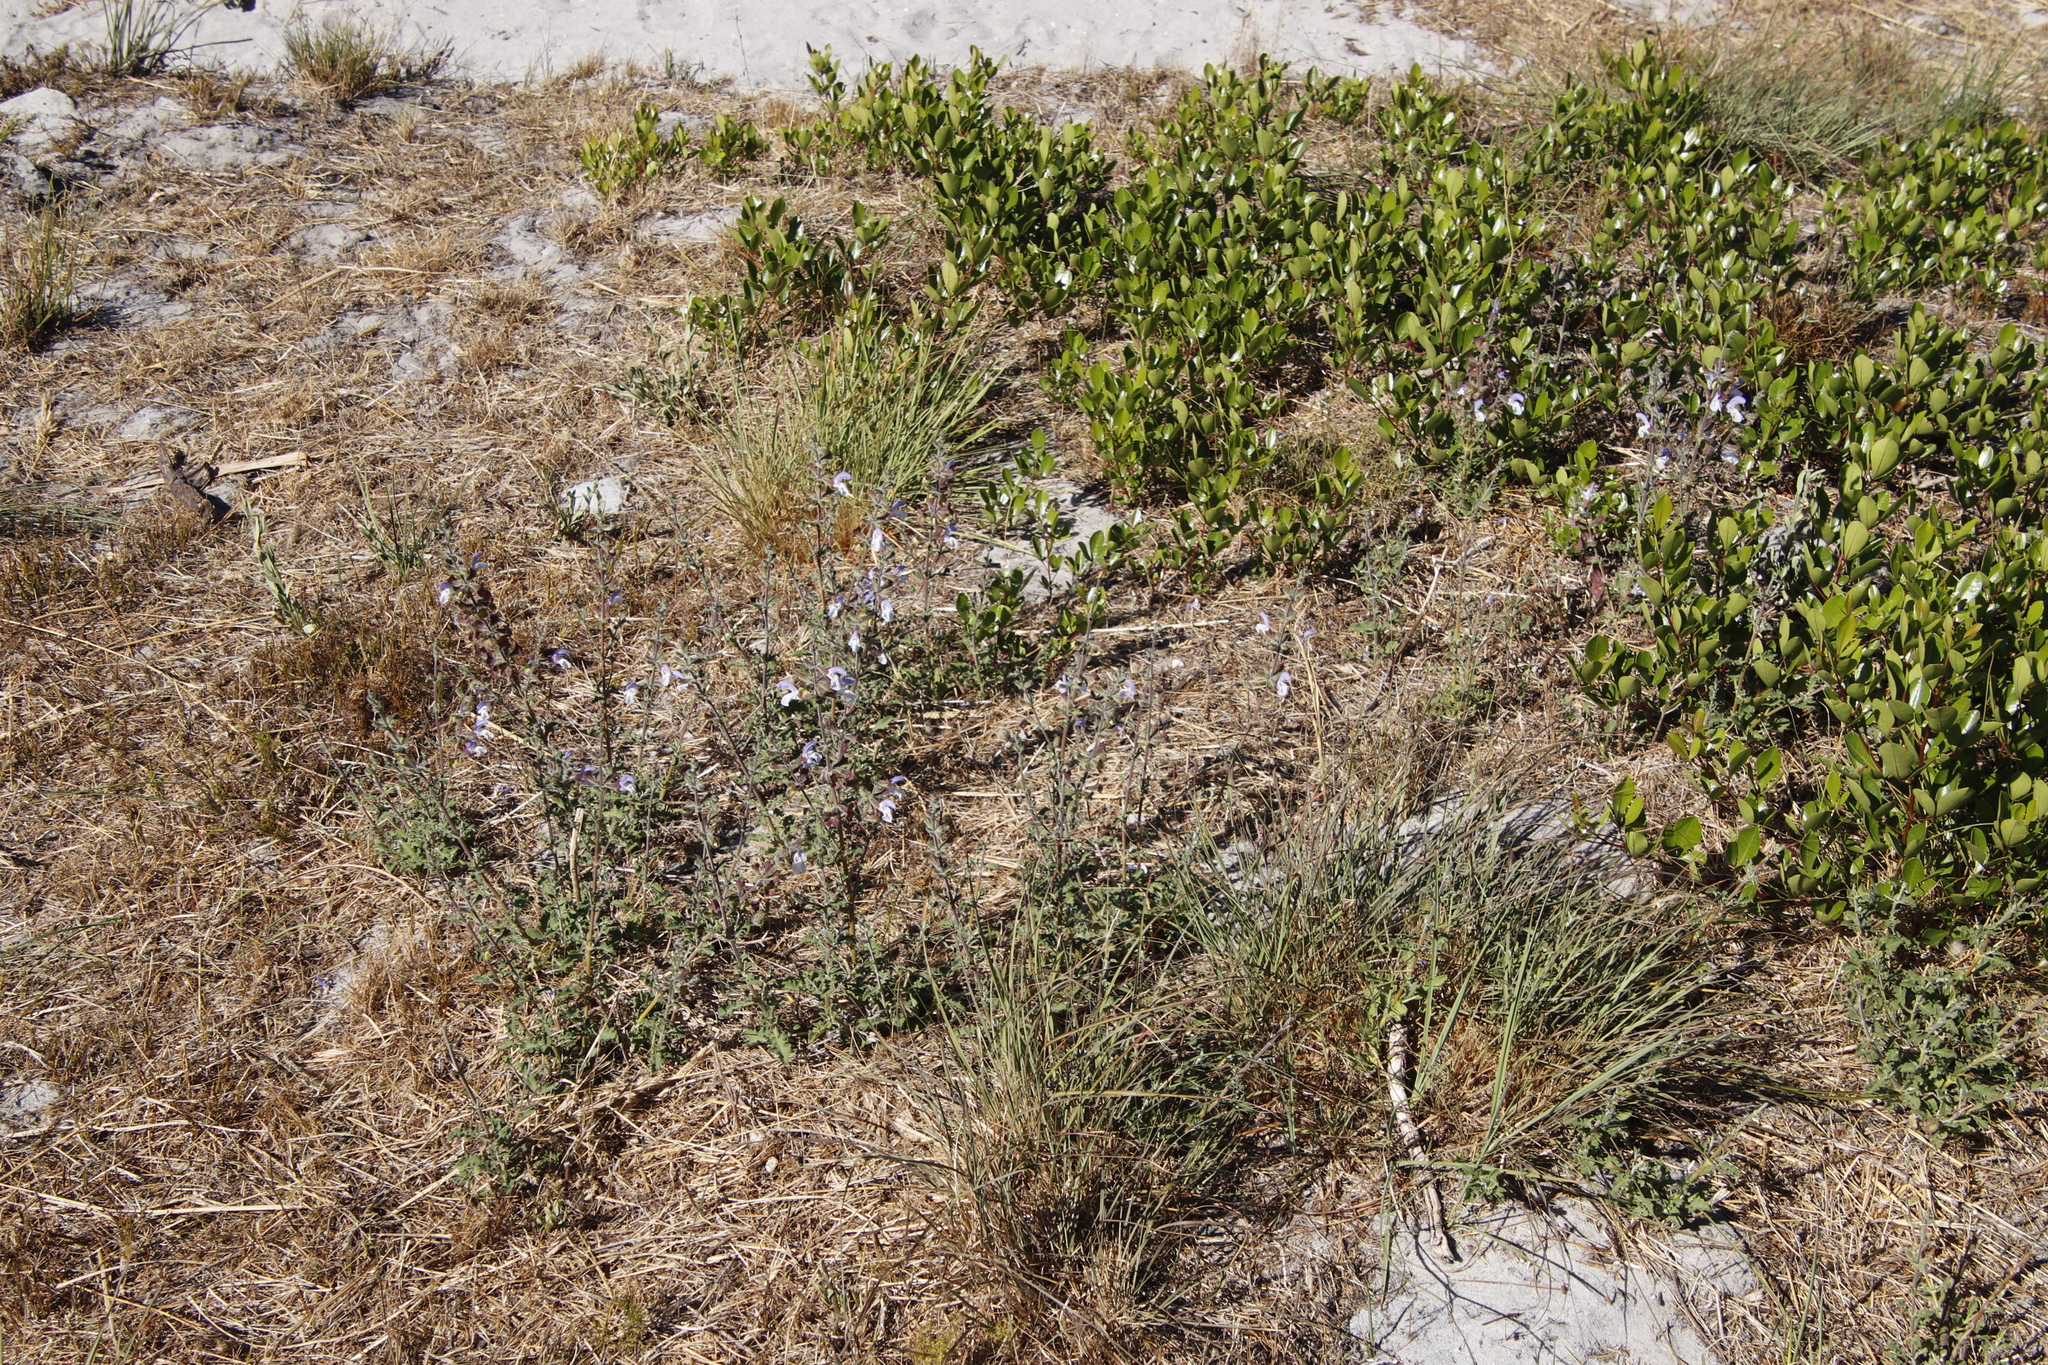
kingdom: Plantae
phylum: Tracheophyta
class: Magnoliopsida
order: Lamiales
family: Lamiaceae
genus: Salvia
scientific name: Salvia africana
